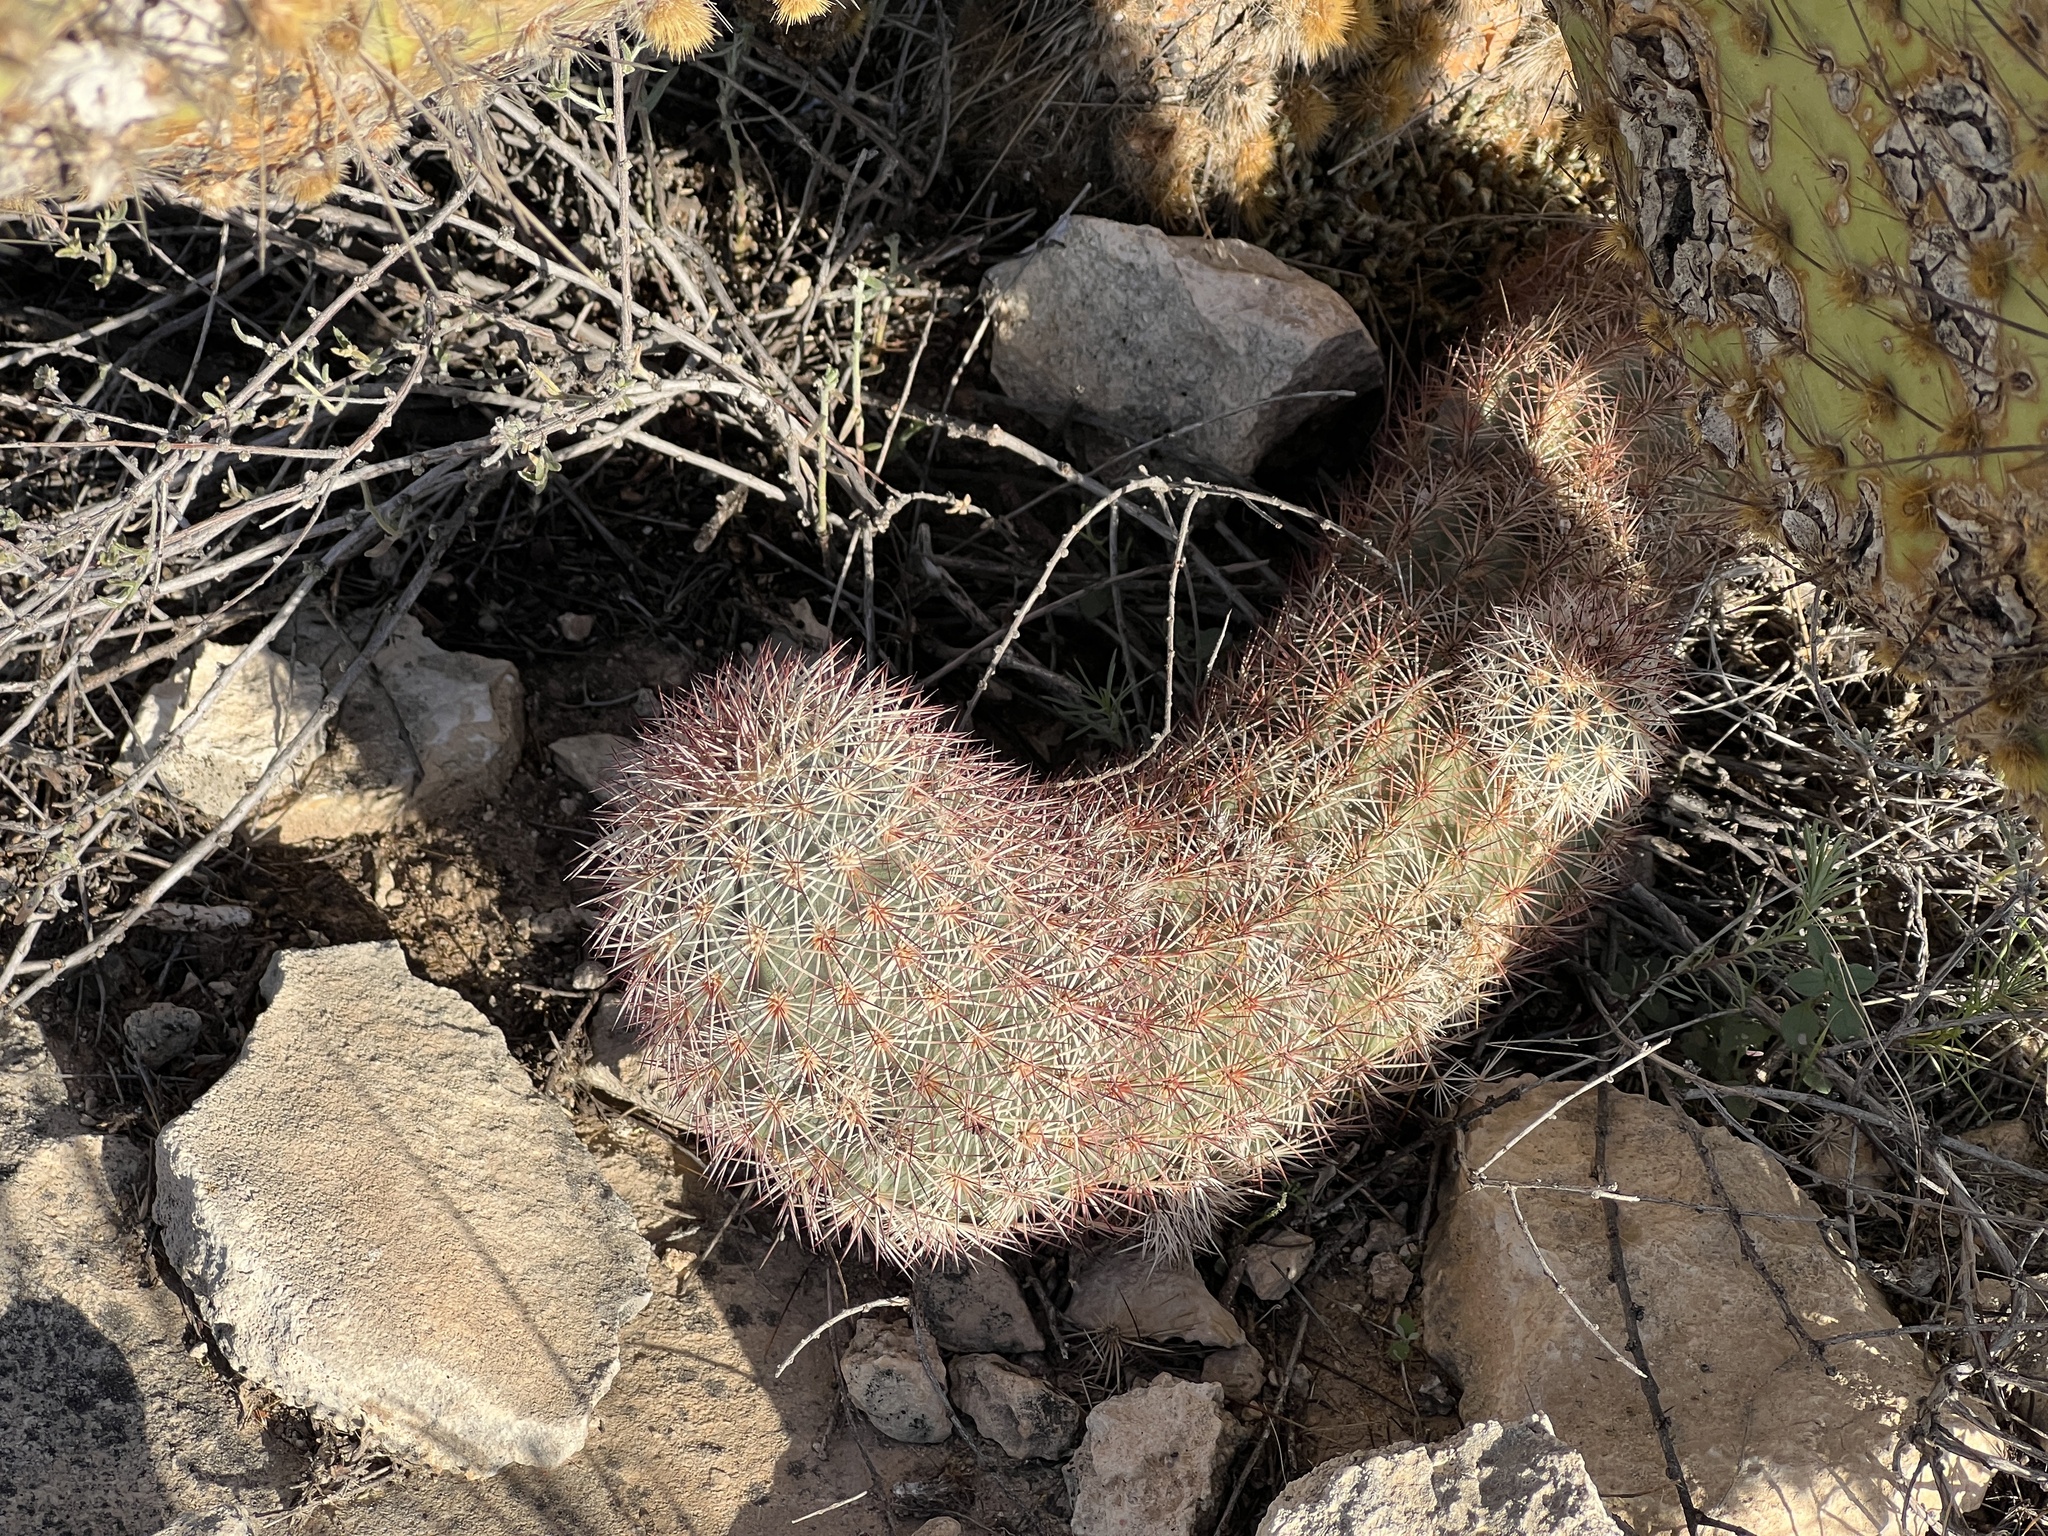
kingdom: Plantae
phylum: Tracheophyta
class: Magnoliopsida
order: Caryophyllales
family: Cactaceae
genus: Echinocereus
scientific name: Echinocereus dasyacanthus
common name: Spiny hedgehog cactus
